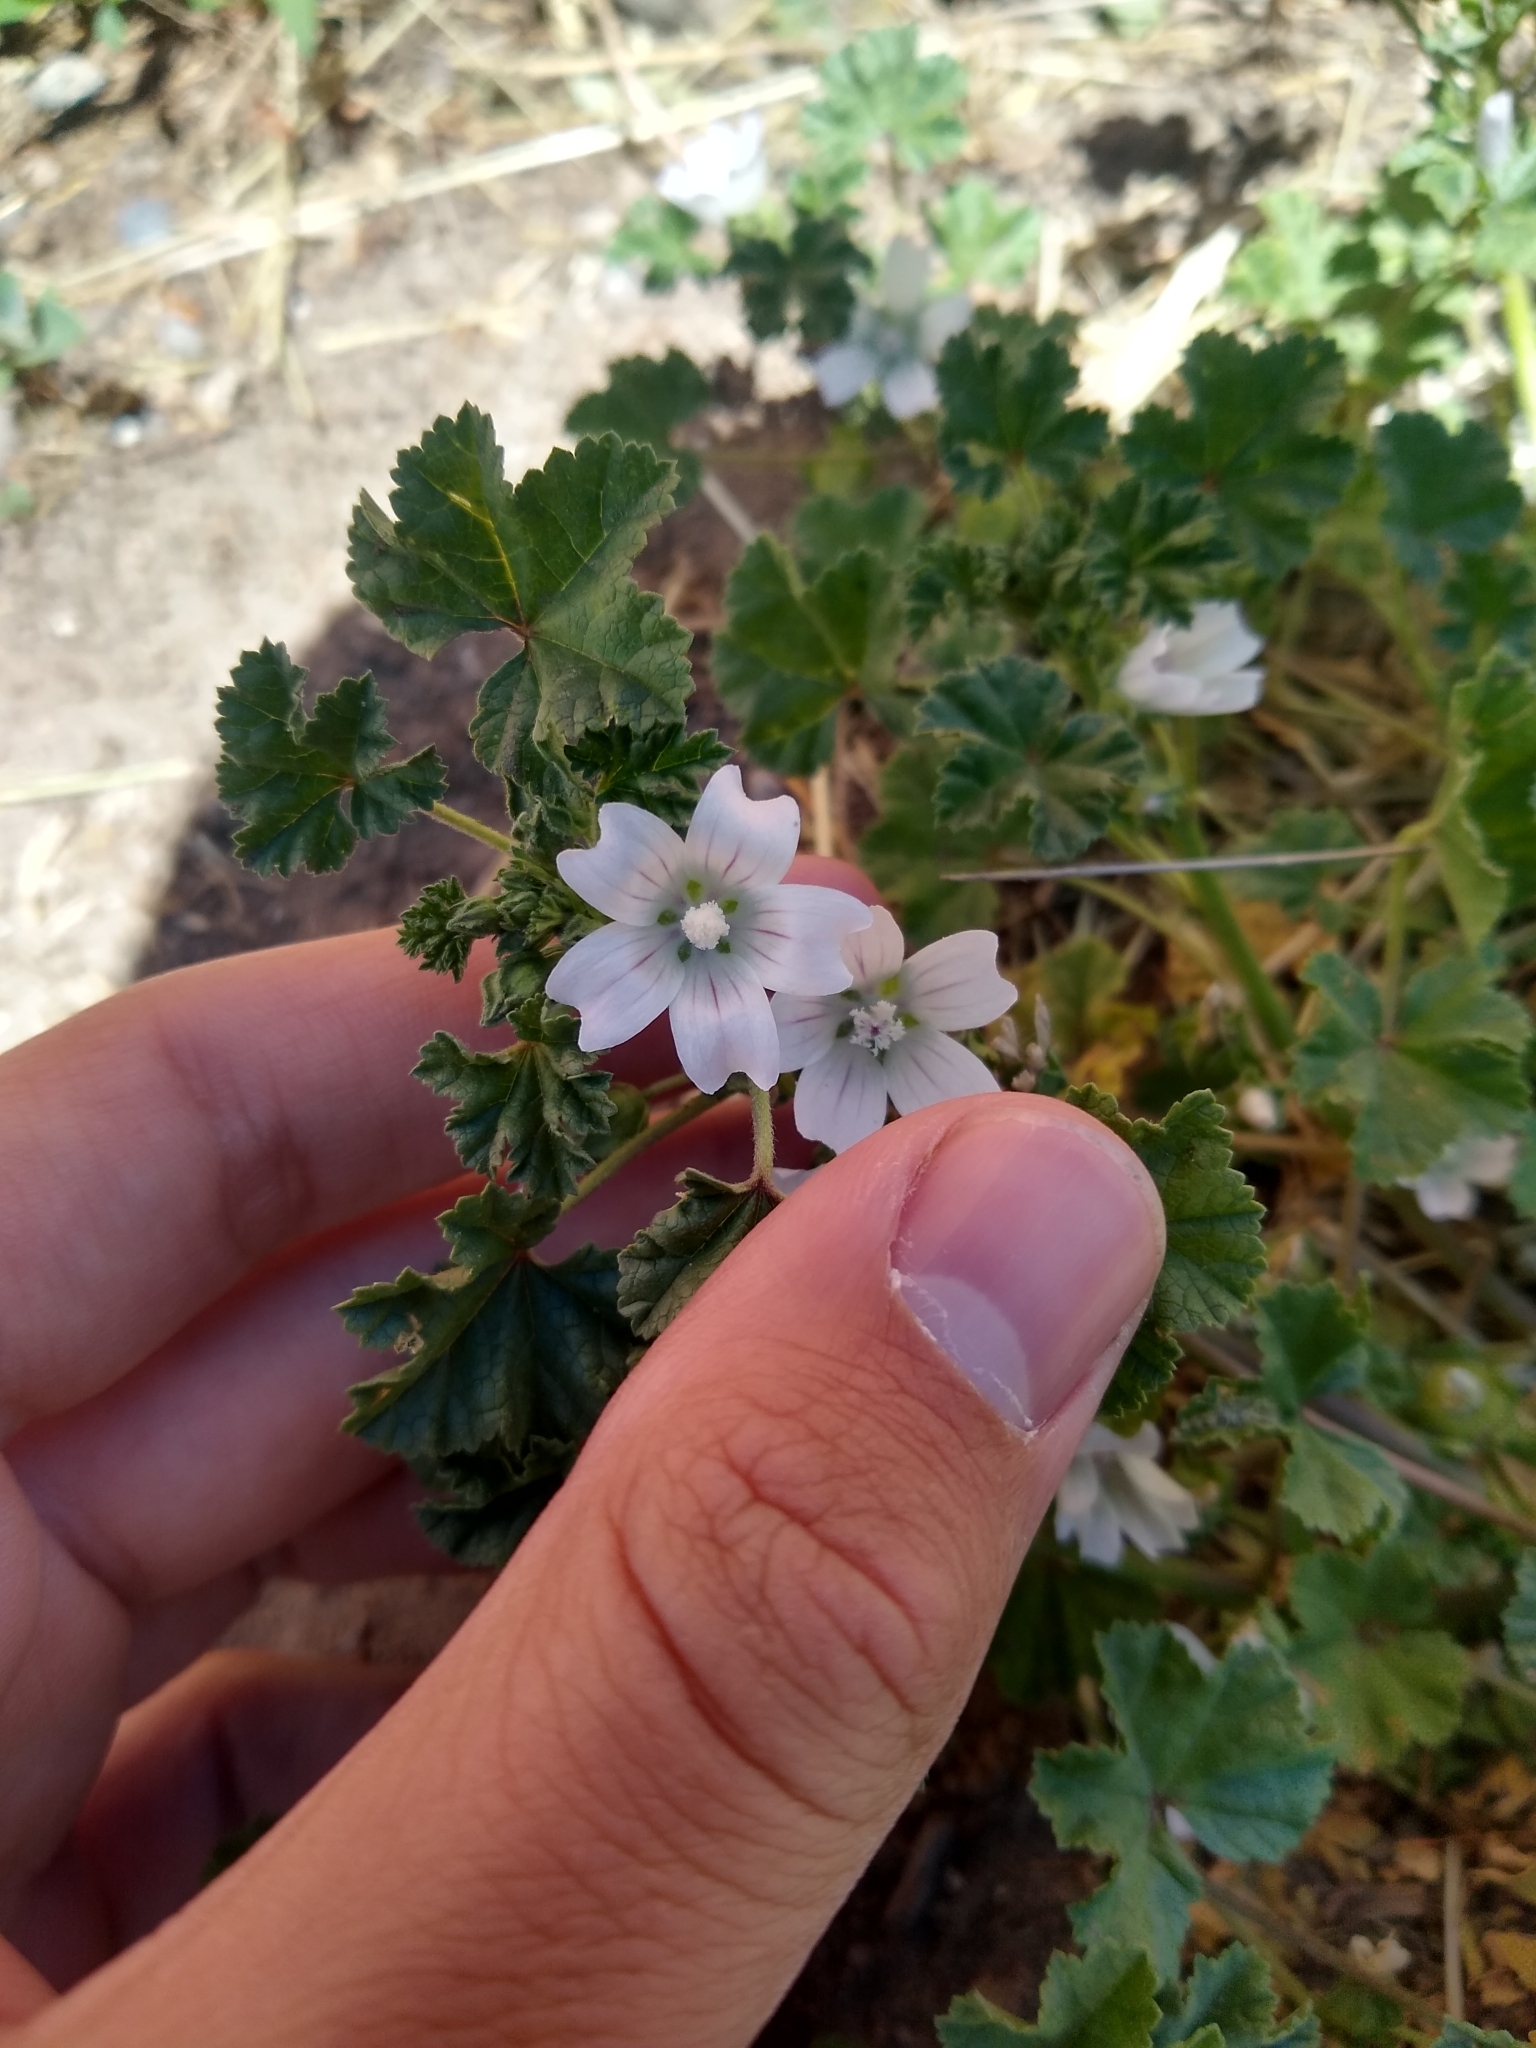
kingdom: Plantae
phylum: Tracheophyta
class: Magnoliopsida
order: Malvales
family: Malvaceae
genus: Malva
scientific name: Malva neglecta
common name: Common mallow
